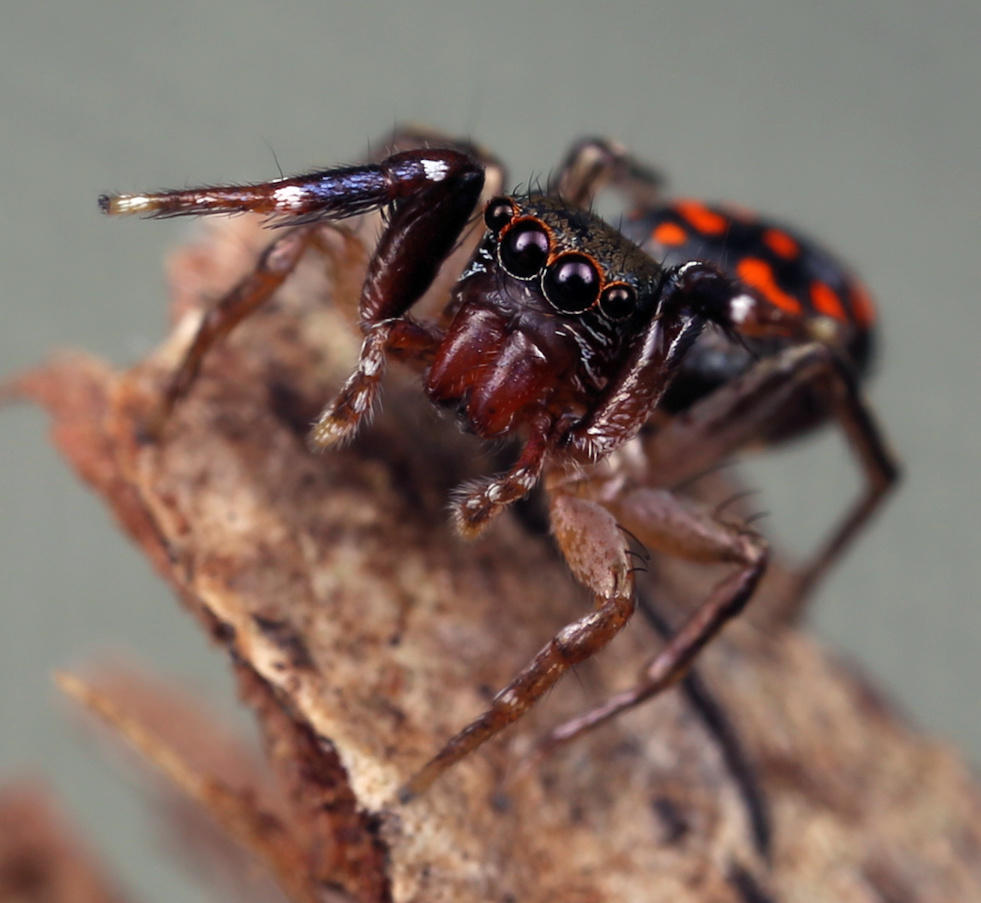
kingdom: Animalia
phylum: Arthropoda
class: Arachnida
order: Araneae
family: Salticidae
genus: Natta
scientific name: Natta horizontalis
